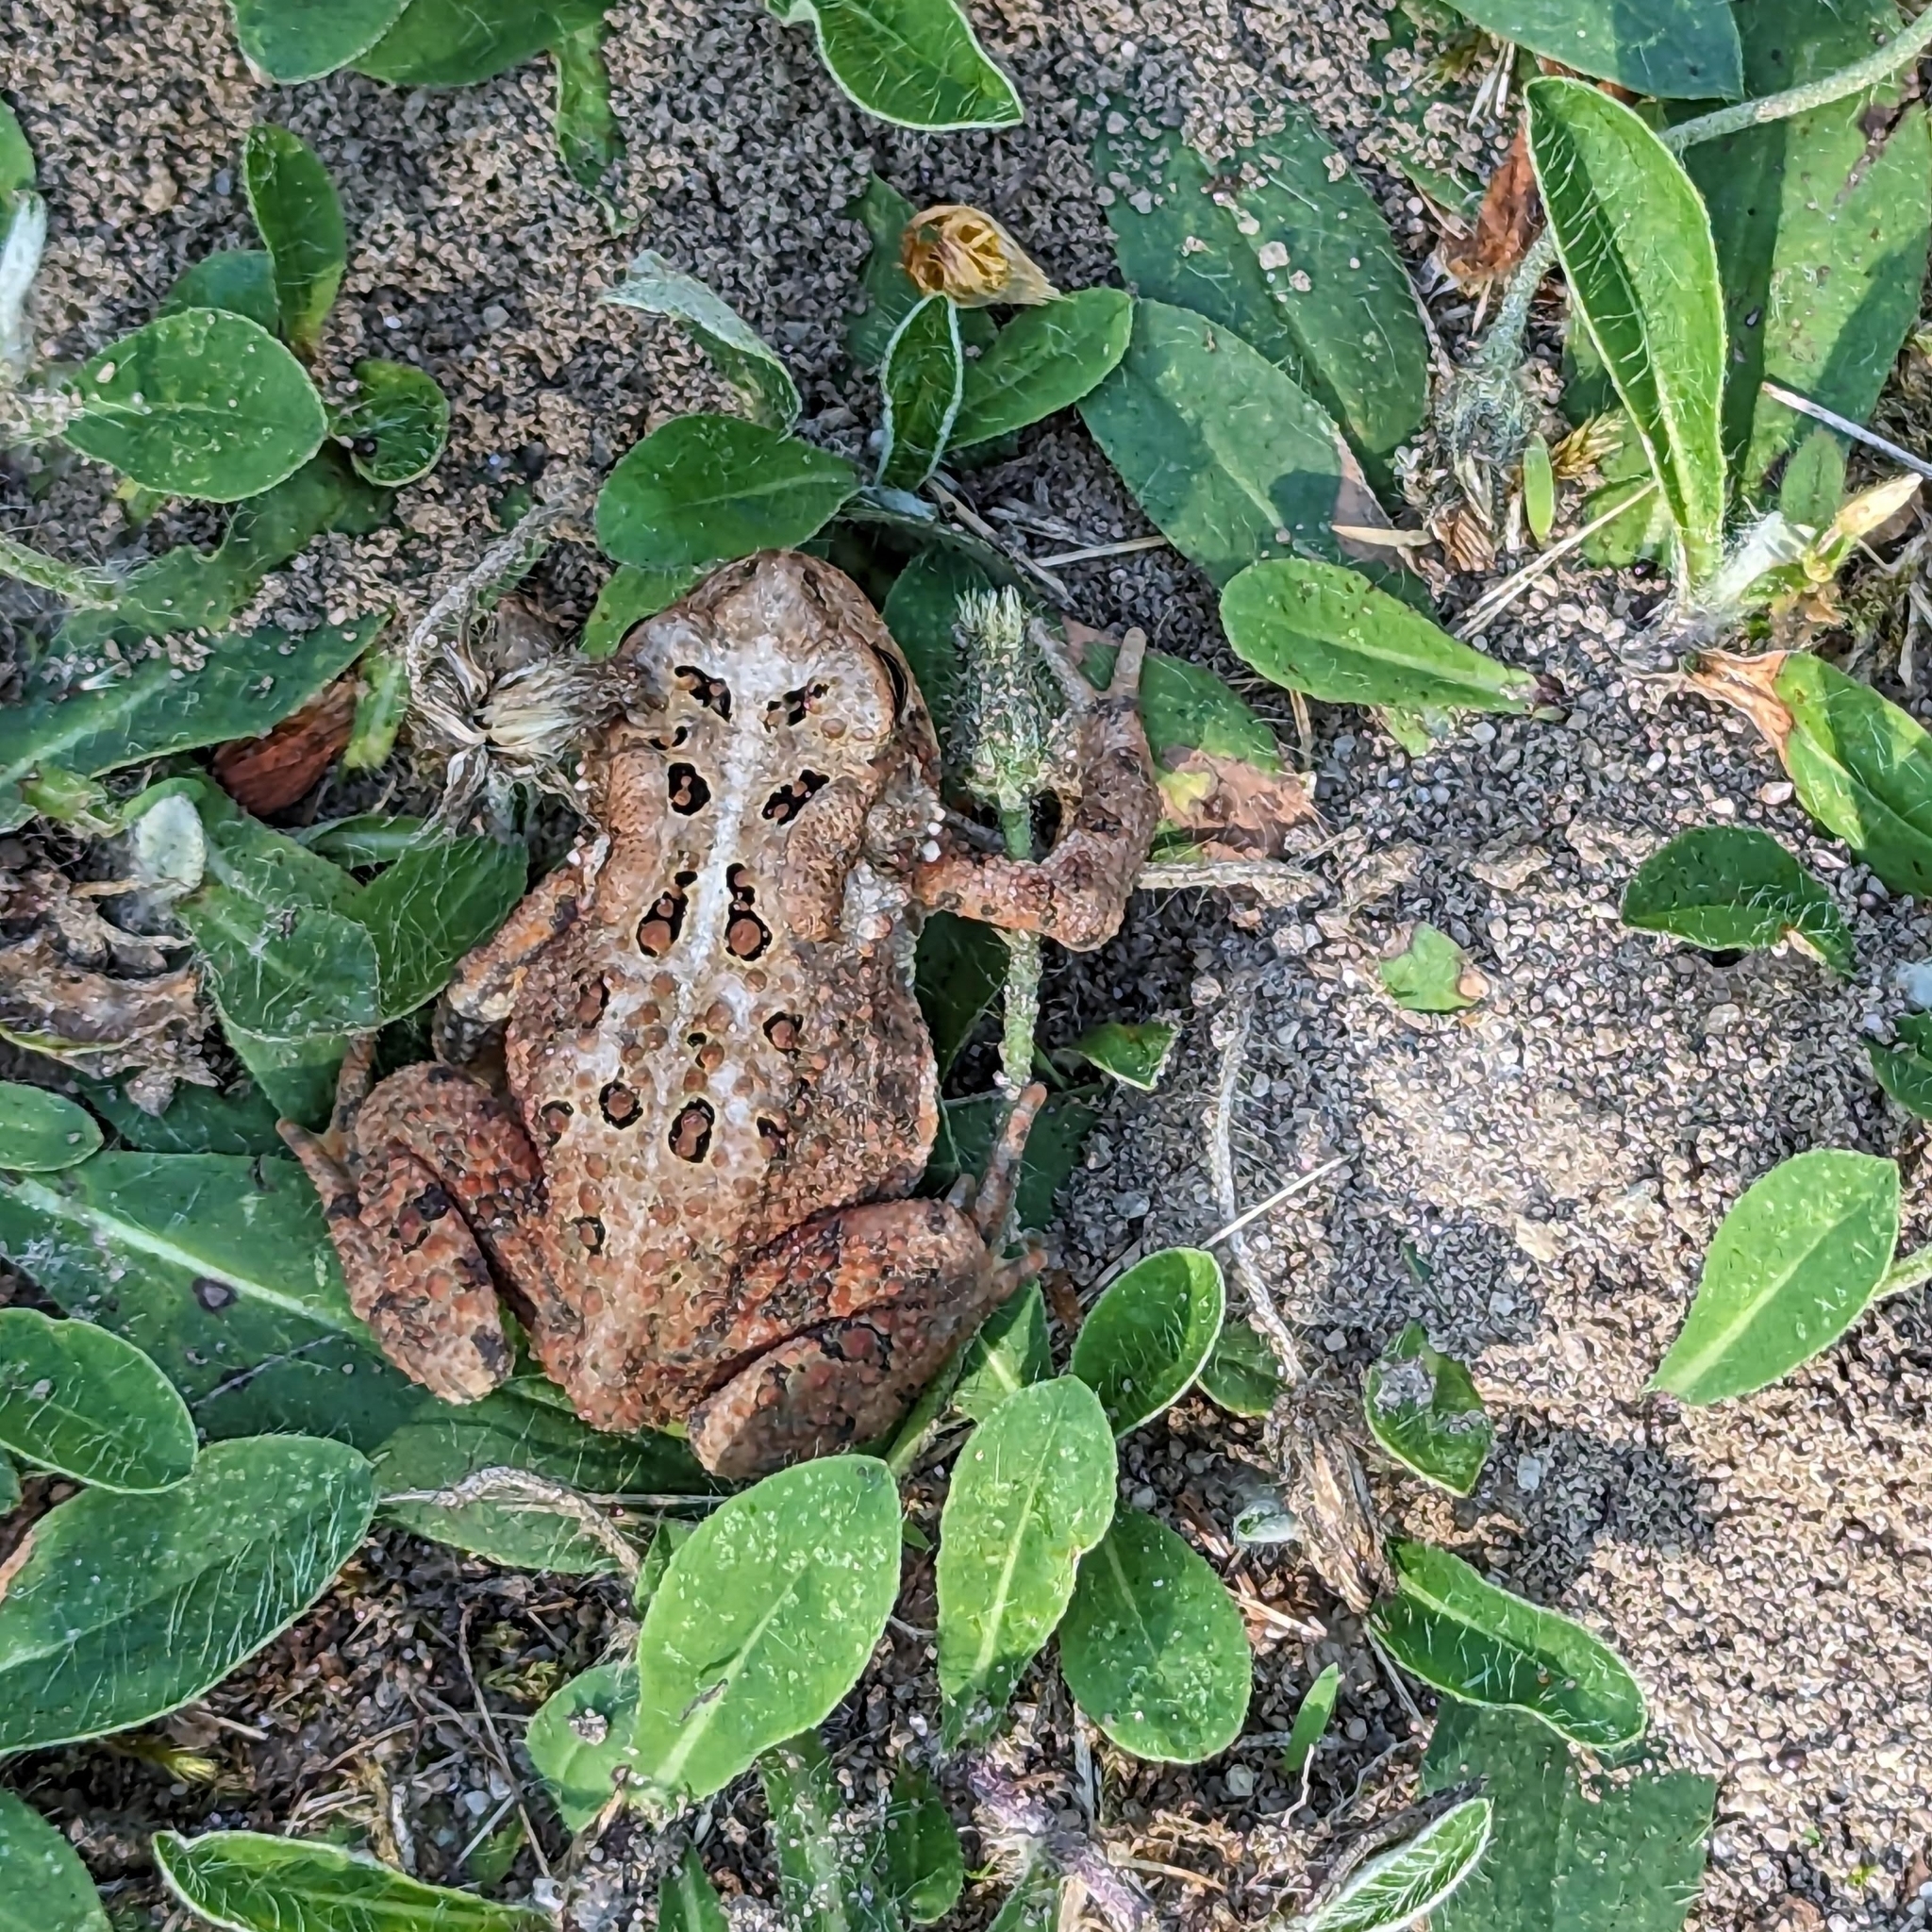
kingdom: Animalia
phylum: Chordata
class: Amphibia
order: Anura
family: Bufonidae
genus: Anaxyrus
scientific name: Anaxyrus americanus
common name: American toad
